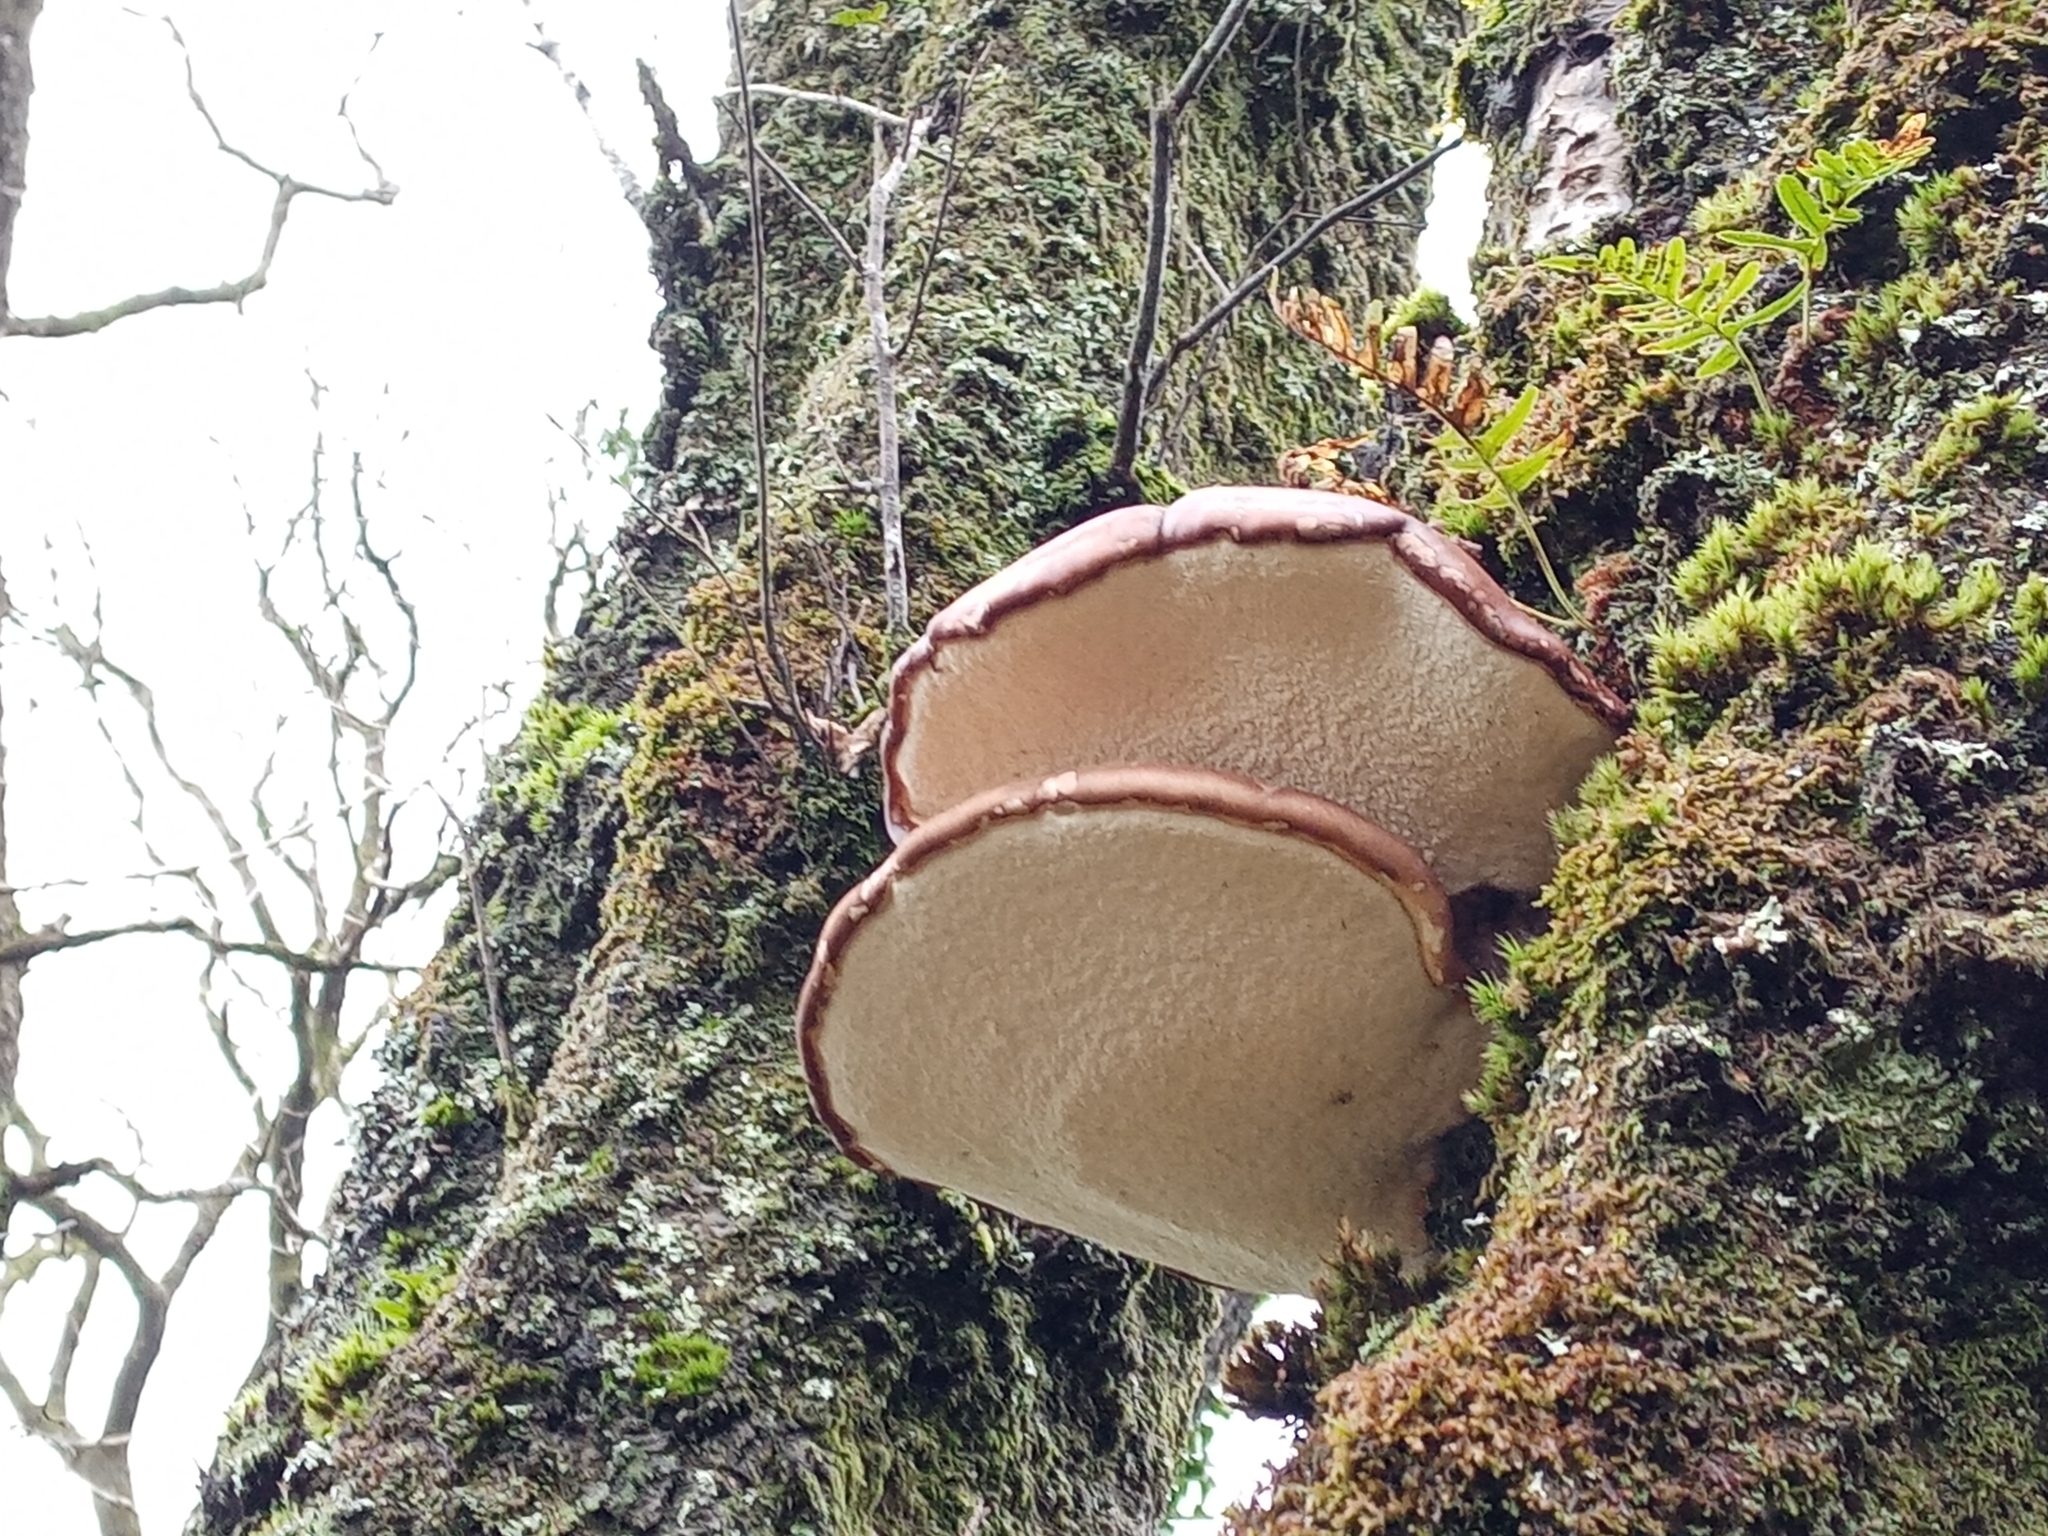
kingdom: Fungi
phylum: Basidiomycota
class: Agaricomycetes
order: Polyporales
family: Fomitopsidaceae
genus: Fomitopsis
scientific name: Fomitopsis betulina
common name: Birch polypore
